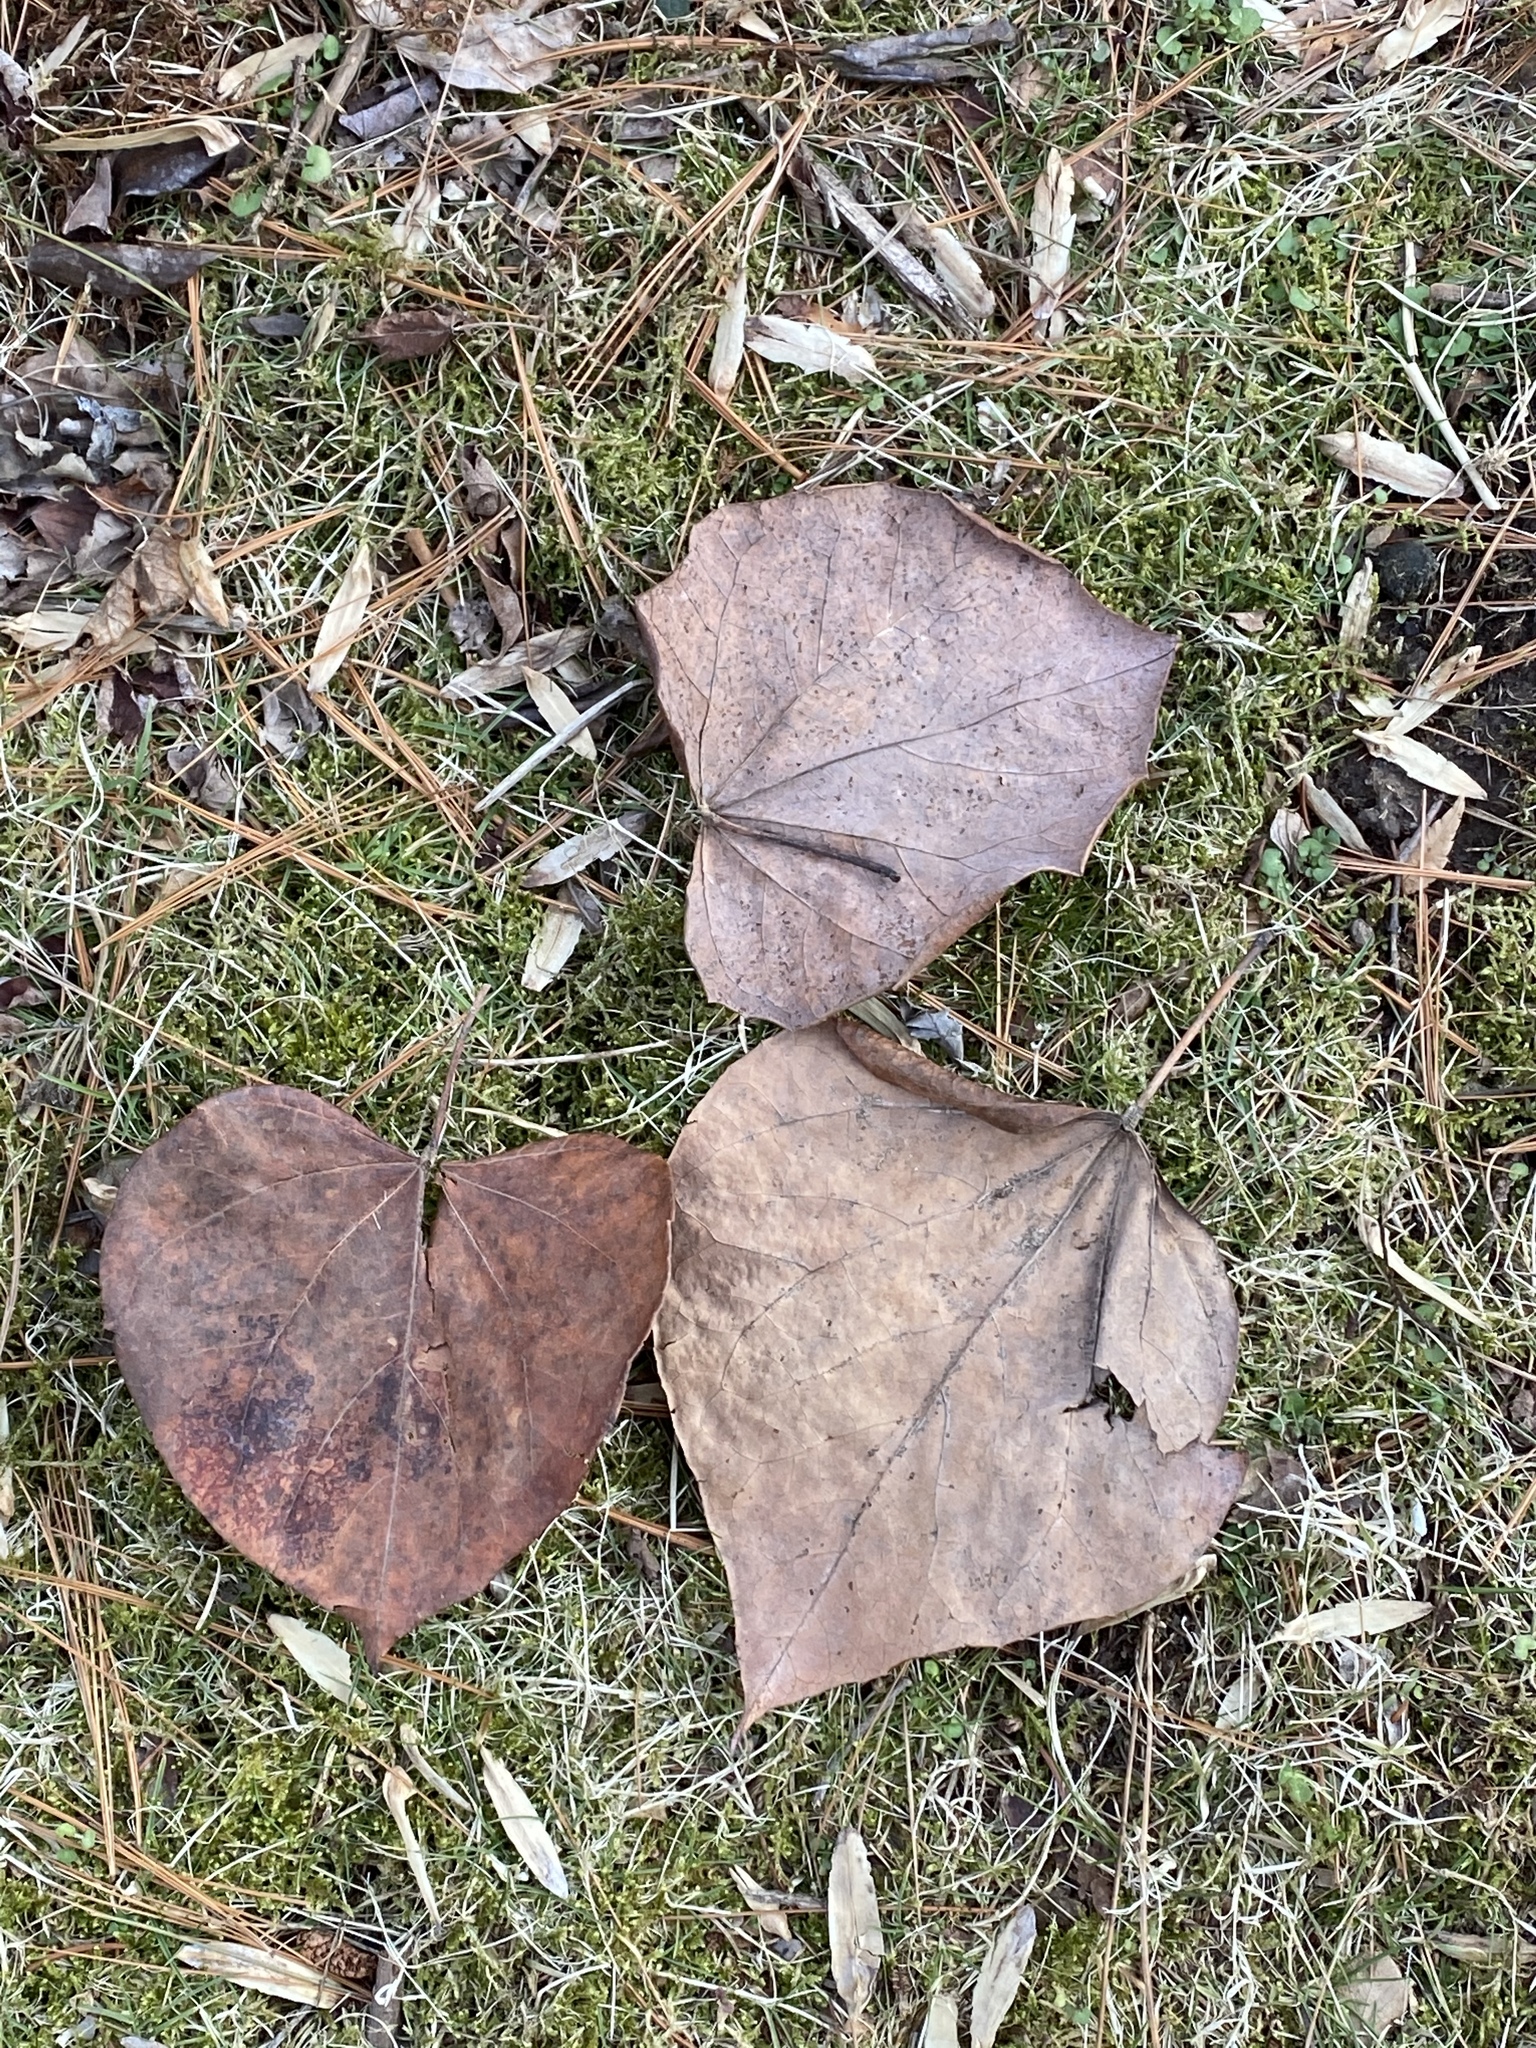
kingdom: Plantae
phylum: Tracheophyta
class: Magnoliopsida
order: Fabales
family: Fabaceae
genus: Cercis
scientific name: Cercis canadensis
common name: Eastern redbud
